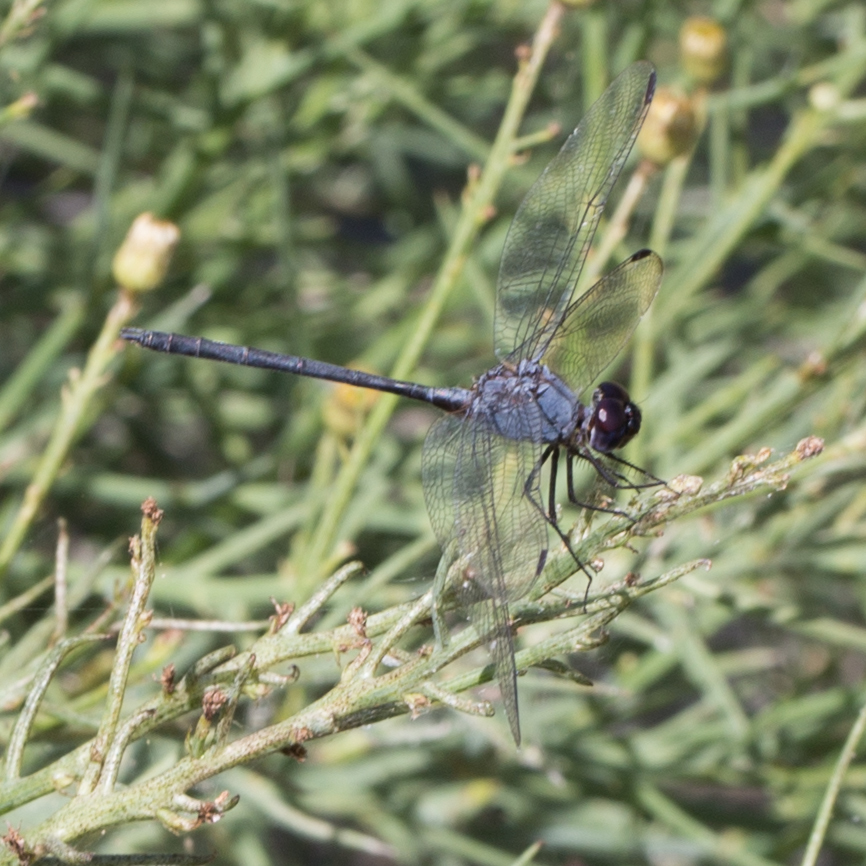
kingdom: Animalia
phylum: Arthropoda
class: Insecta
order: Odonata
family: Libellulidae
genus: Dythemis
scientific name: Dythemis nigrescens
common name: Black setwing
